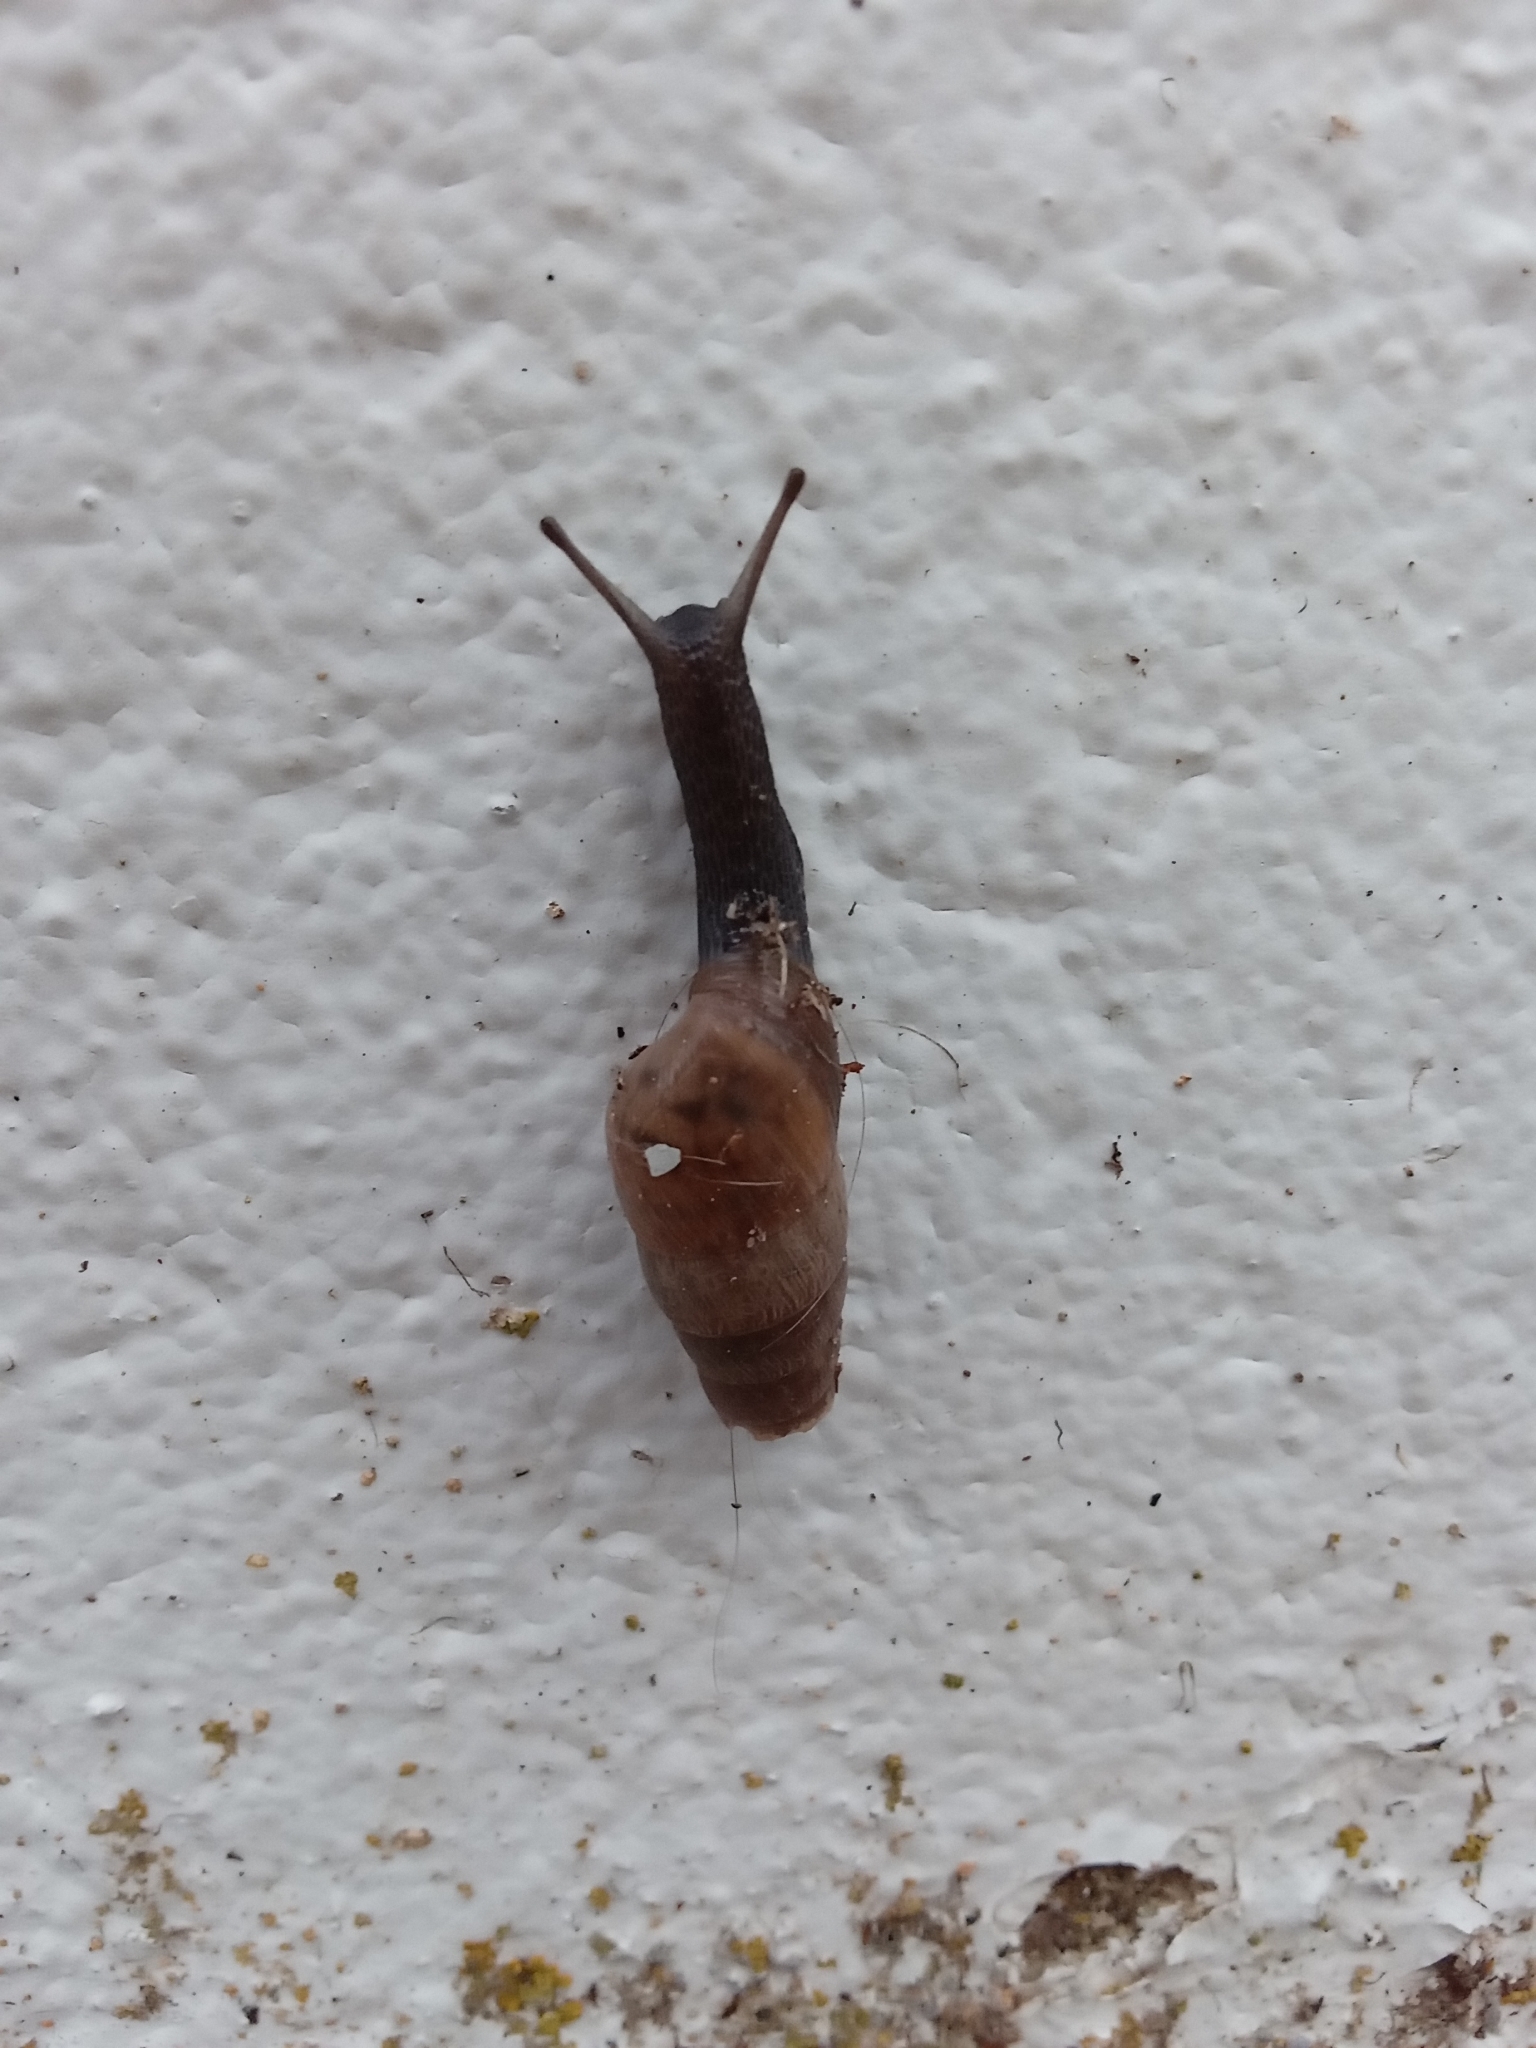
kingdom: Animalia
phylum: Mollusca
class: Gastropoda
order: Stylommatophora
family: Achatinidae
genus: Rumina
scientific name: Rumina decollata
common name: Decollate snail
